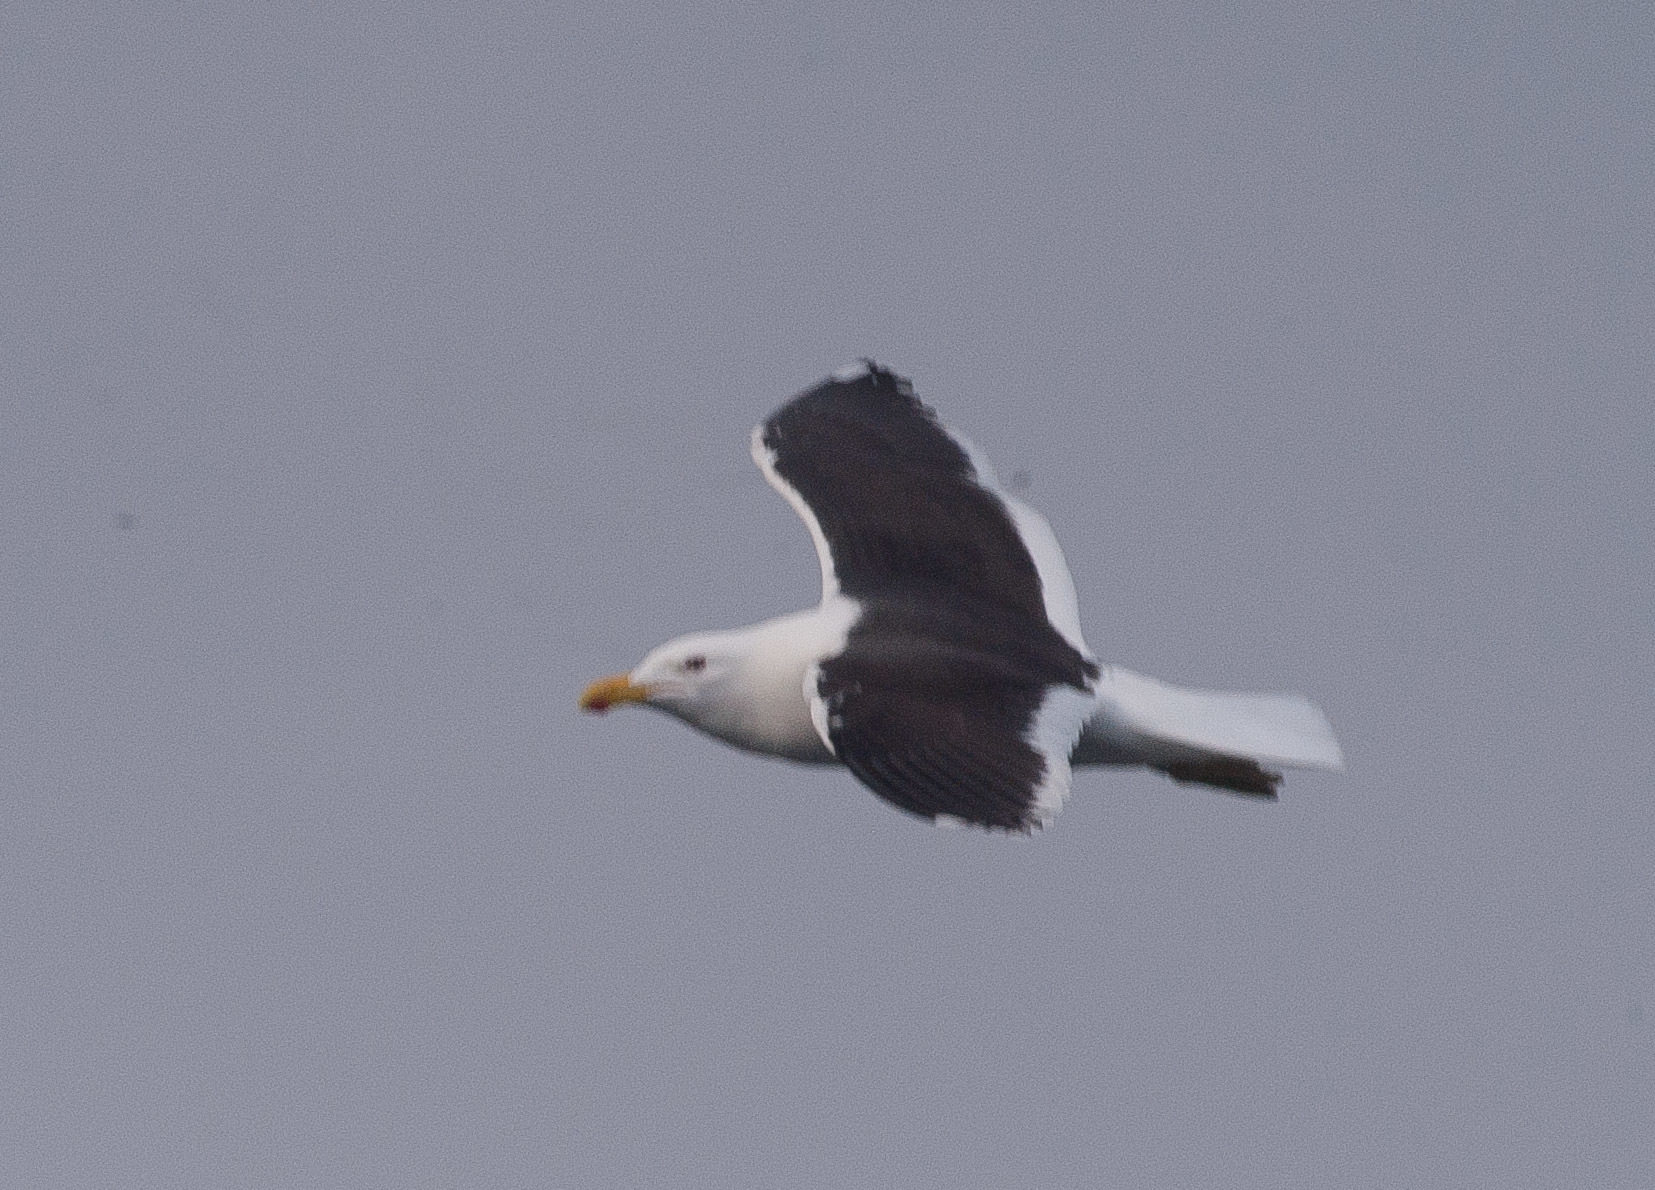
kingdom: Animalia
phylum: Chordata
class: Aves
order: Charadriiformes
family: Laridae
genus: Larus
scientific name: Larus dominicanus
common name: Kelp gull
